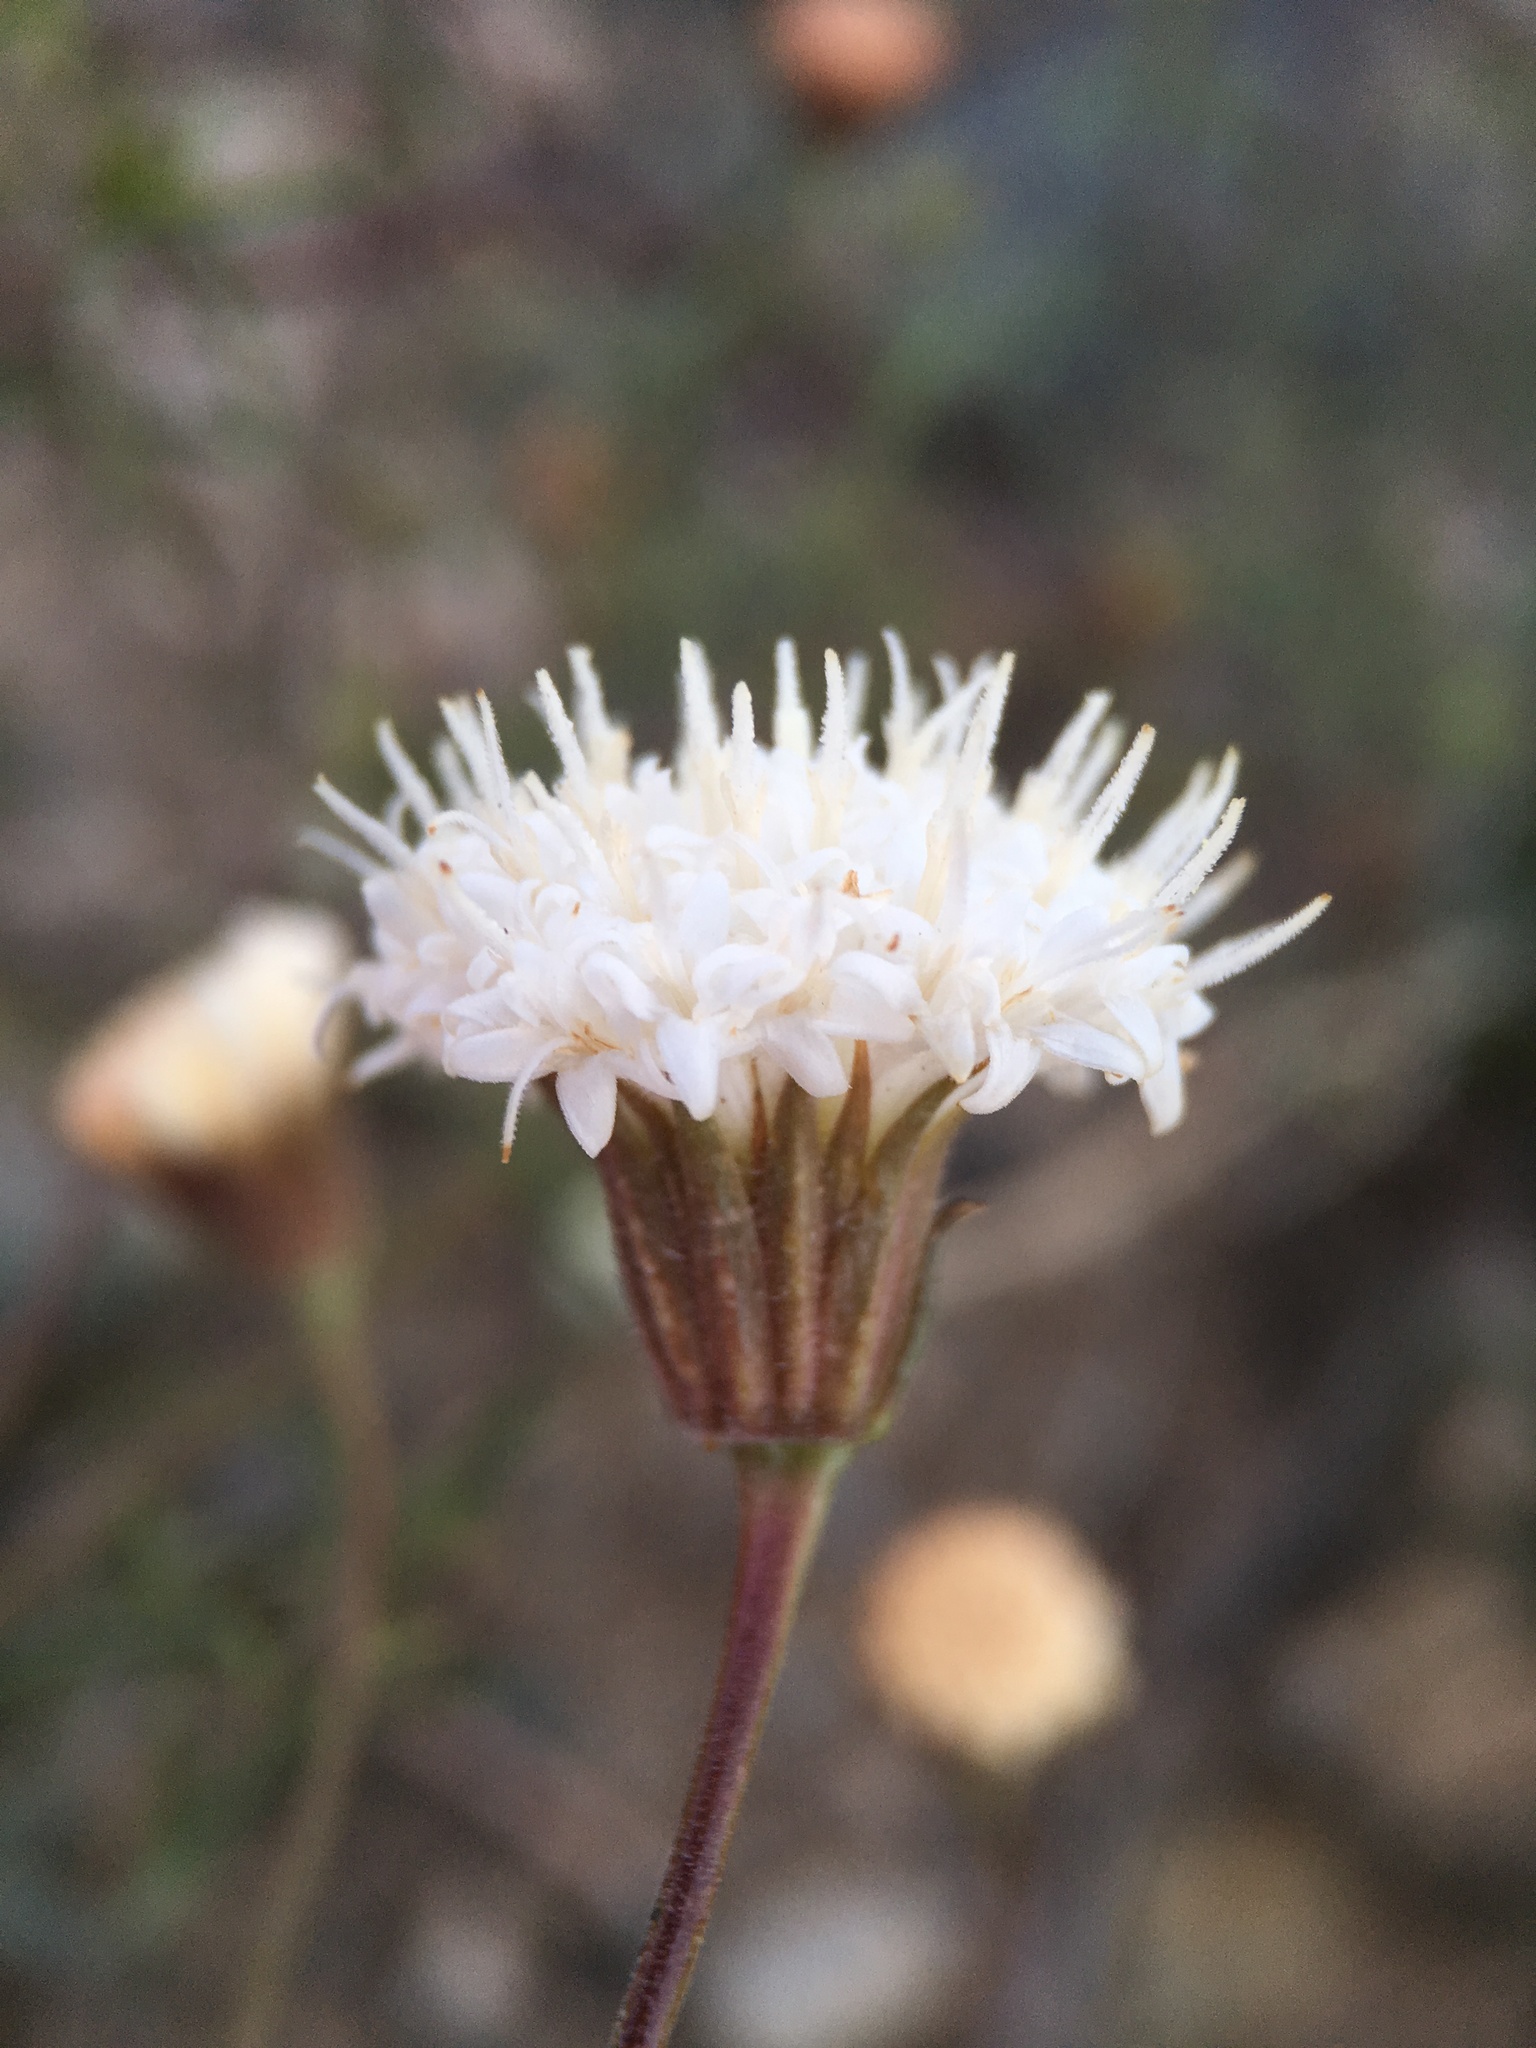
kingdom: Plantae
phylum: Tracheophyta
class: Magnoliopsida
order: Asterales
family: Asteraceae
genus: Chaenactis
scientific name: Chaenactis carphoclinia
